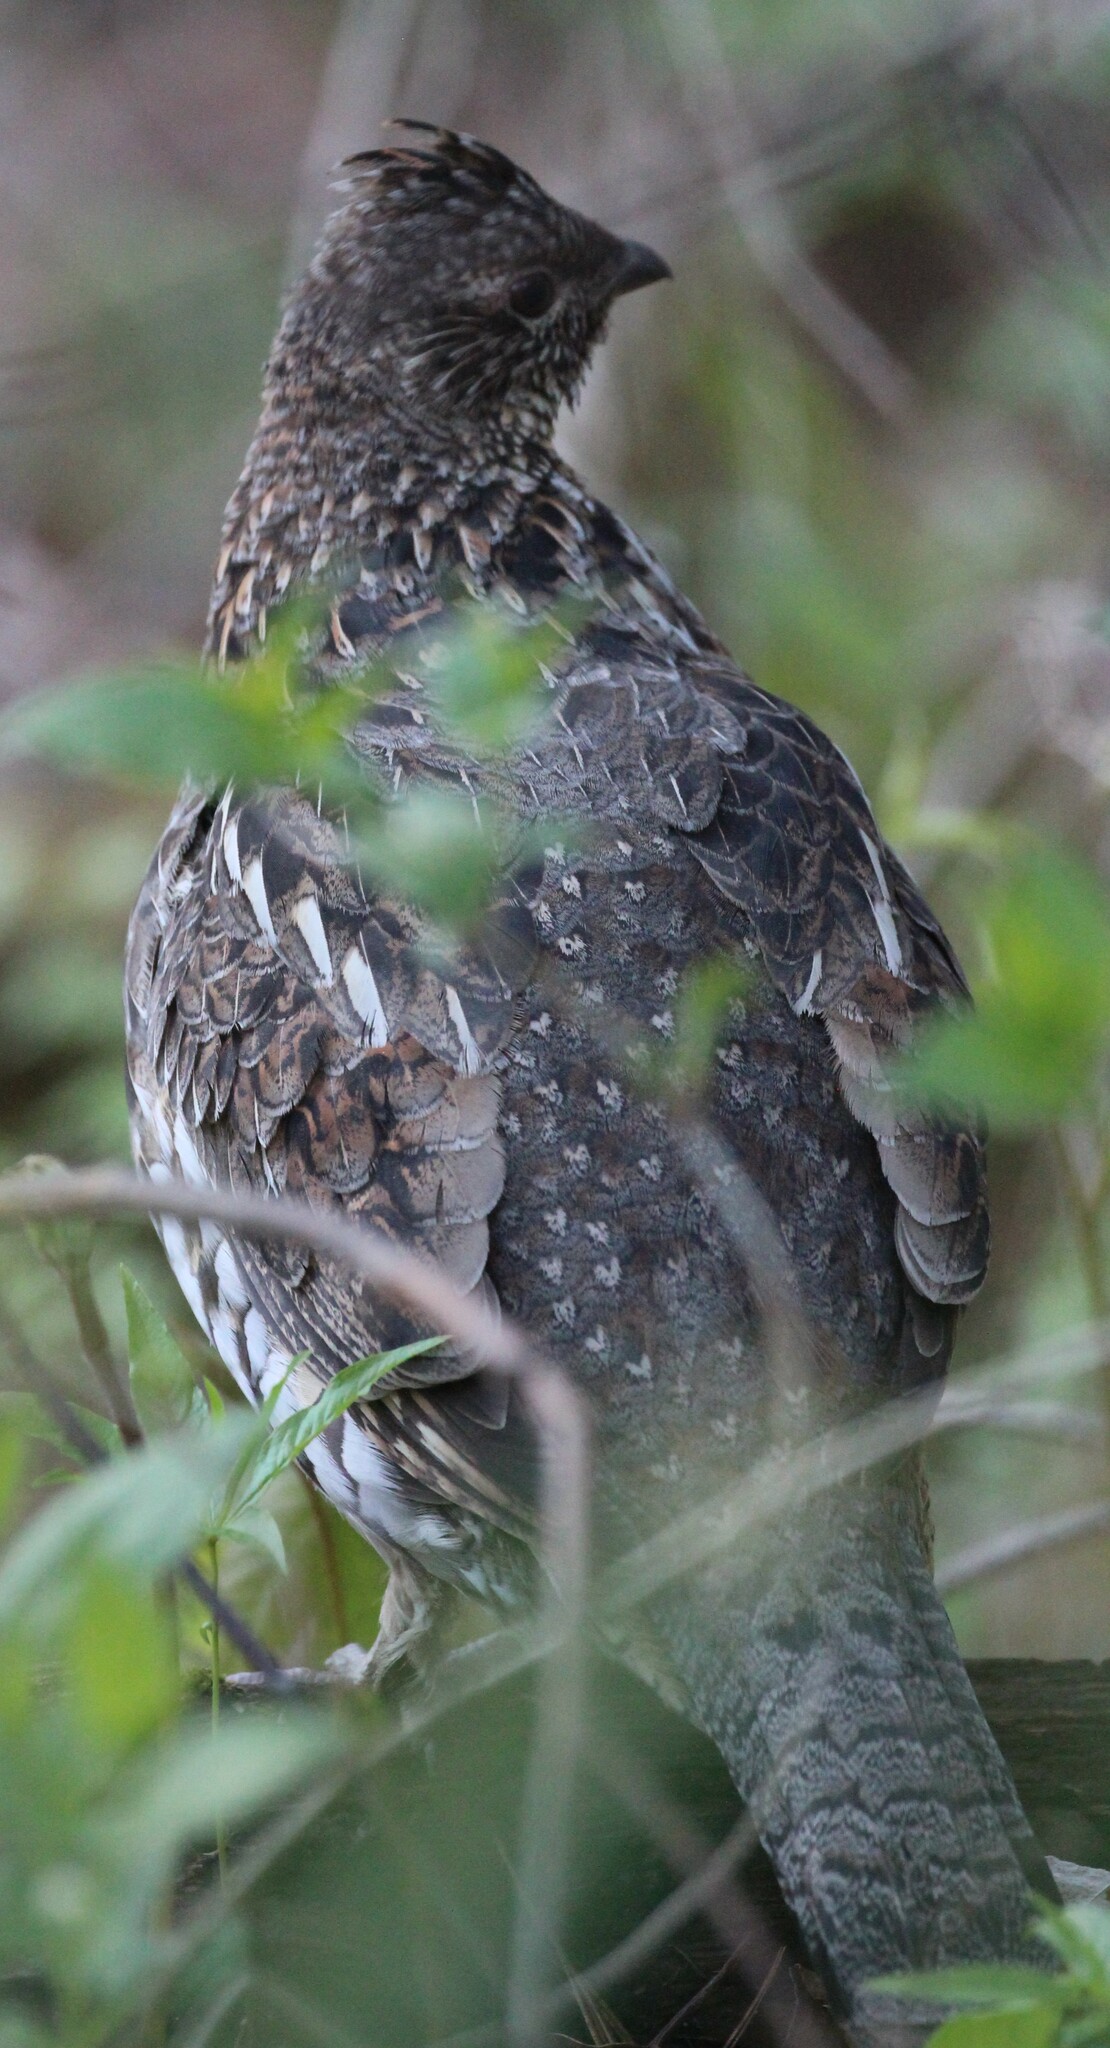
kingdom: Animalia
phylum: Chordata
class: Aves
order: Galliformes
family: Phasianidae
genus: Bonasa
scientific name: Bonasa umbellus
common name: Ruffed grouse
